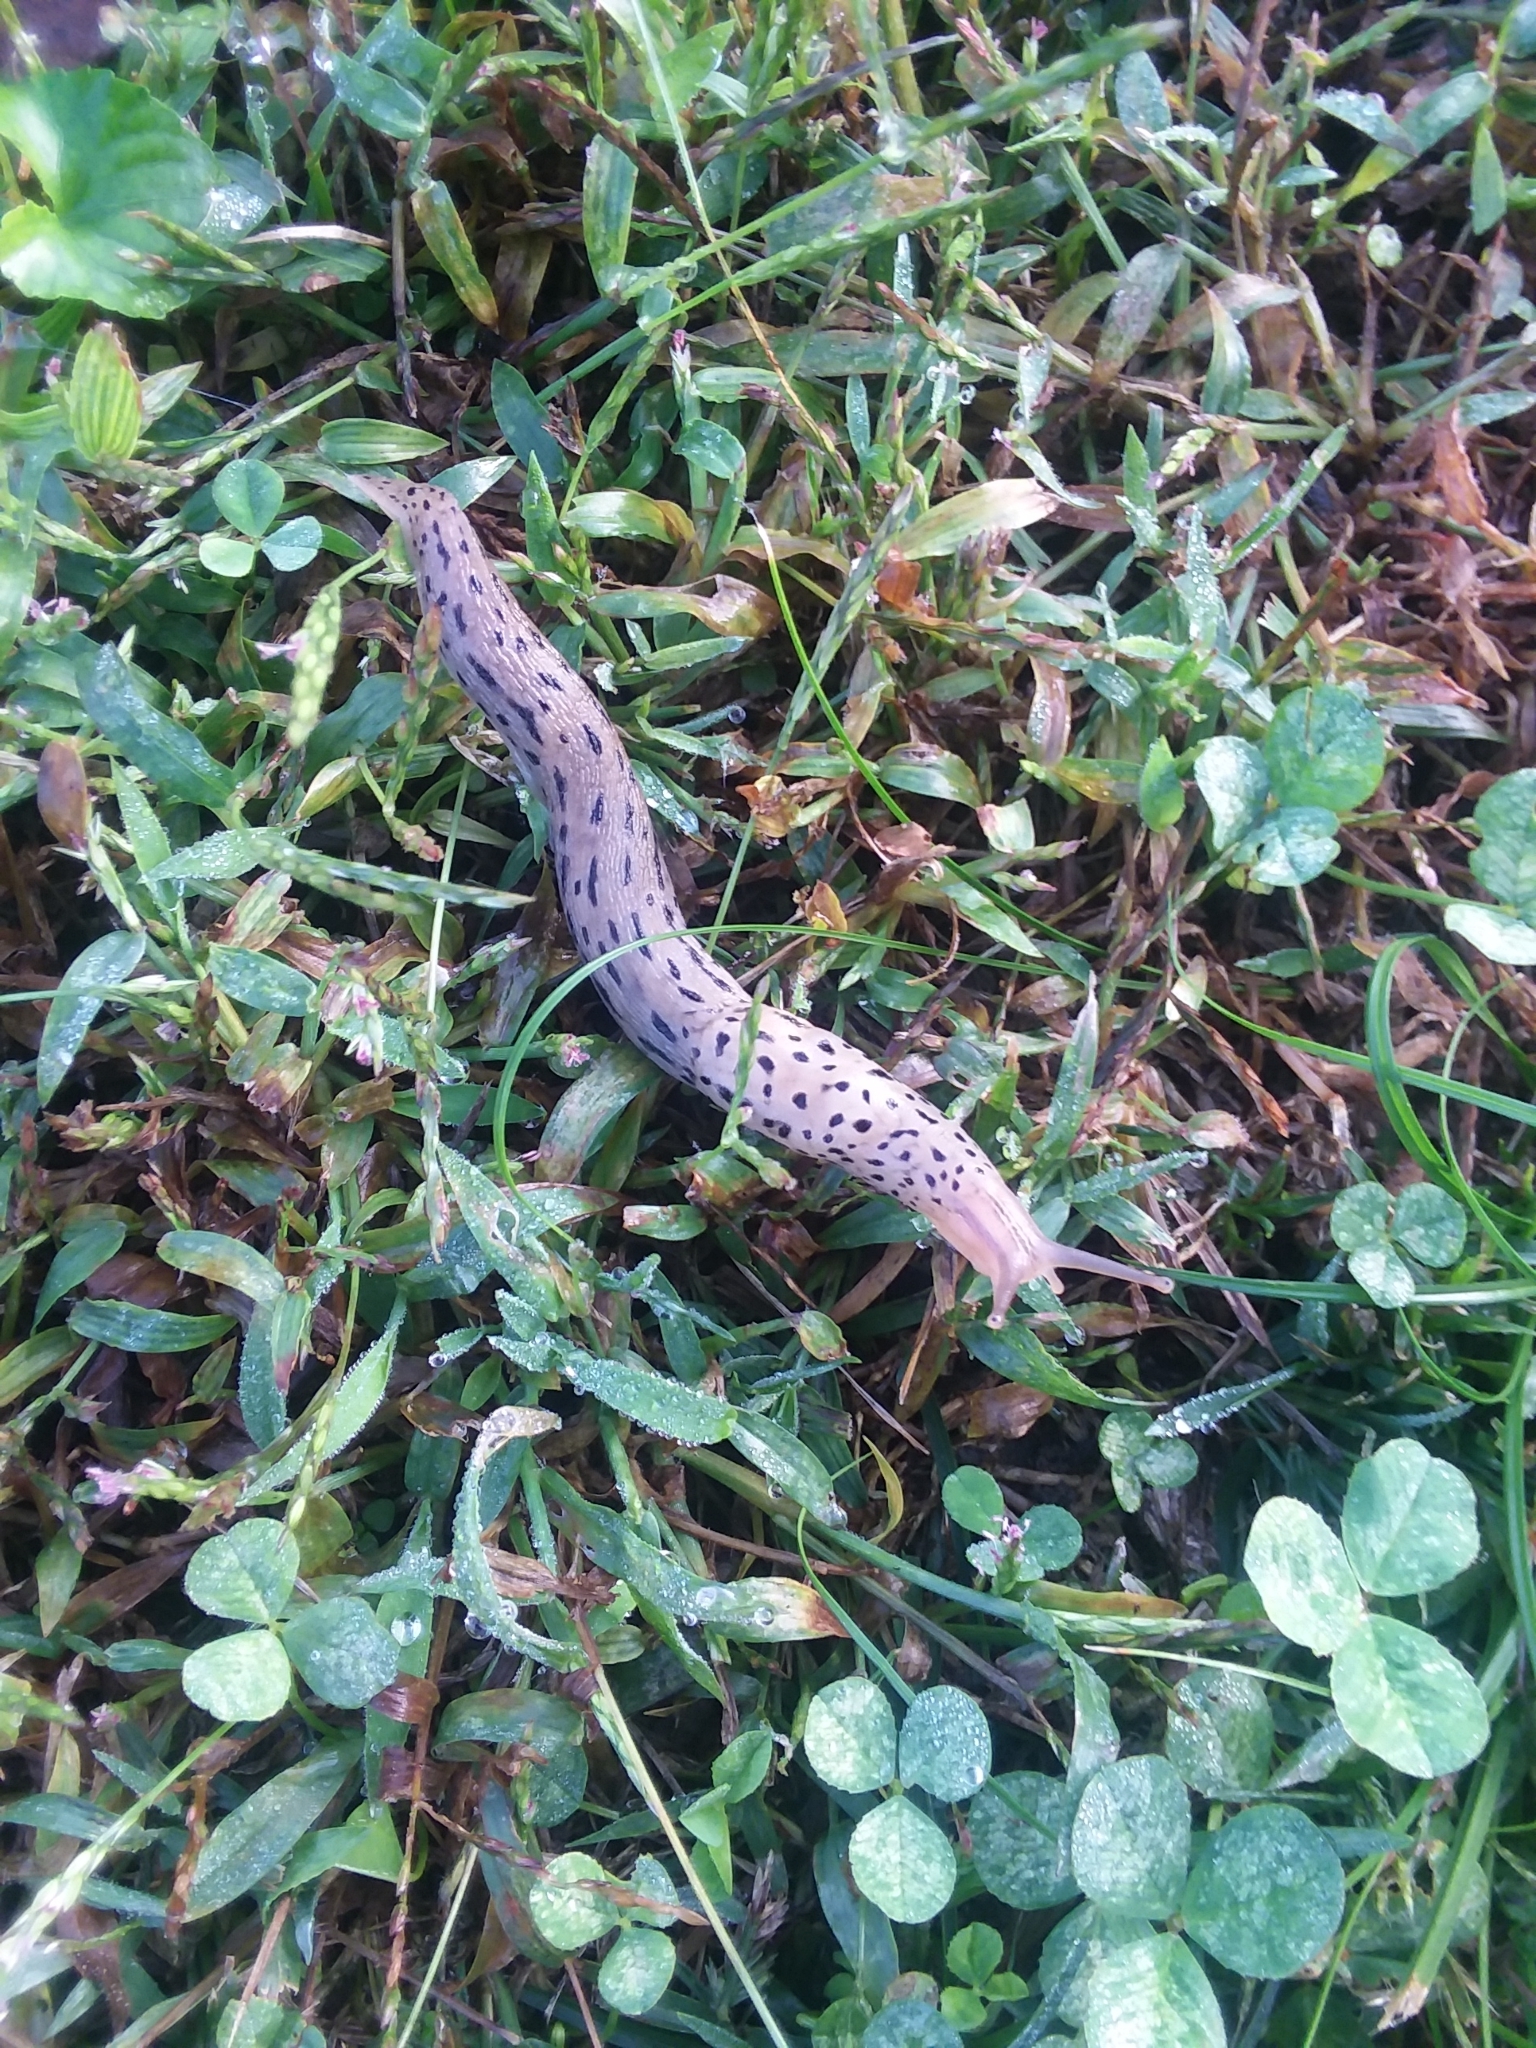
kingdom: Animalia
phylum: Mollusca
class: Gastropoda
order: Stylommatophora
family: Limacidae
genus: Limax
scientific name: Limax maximus
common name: Great grey slug
